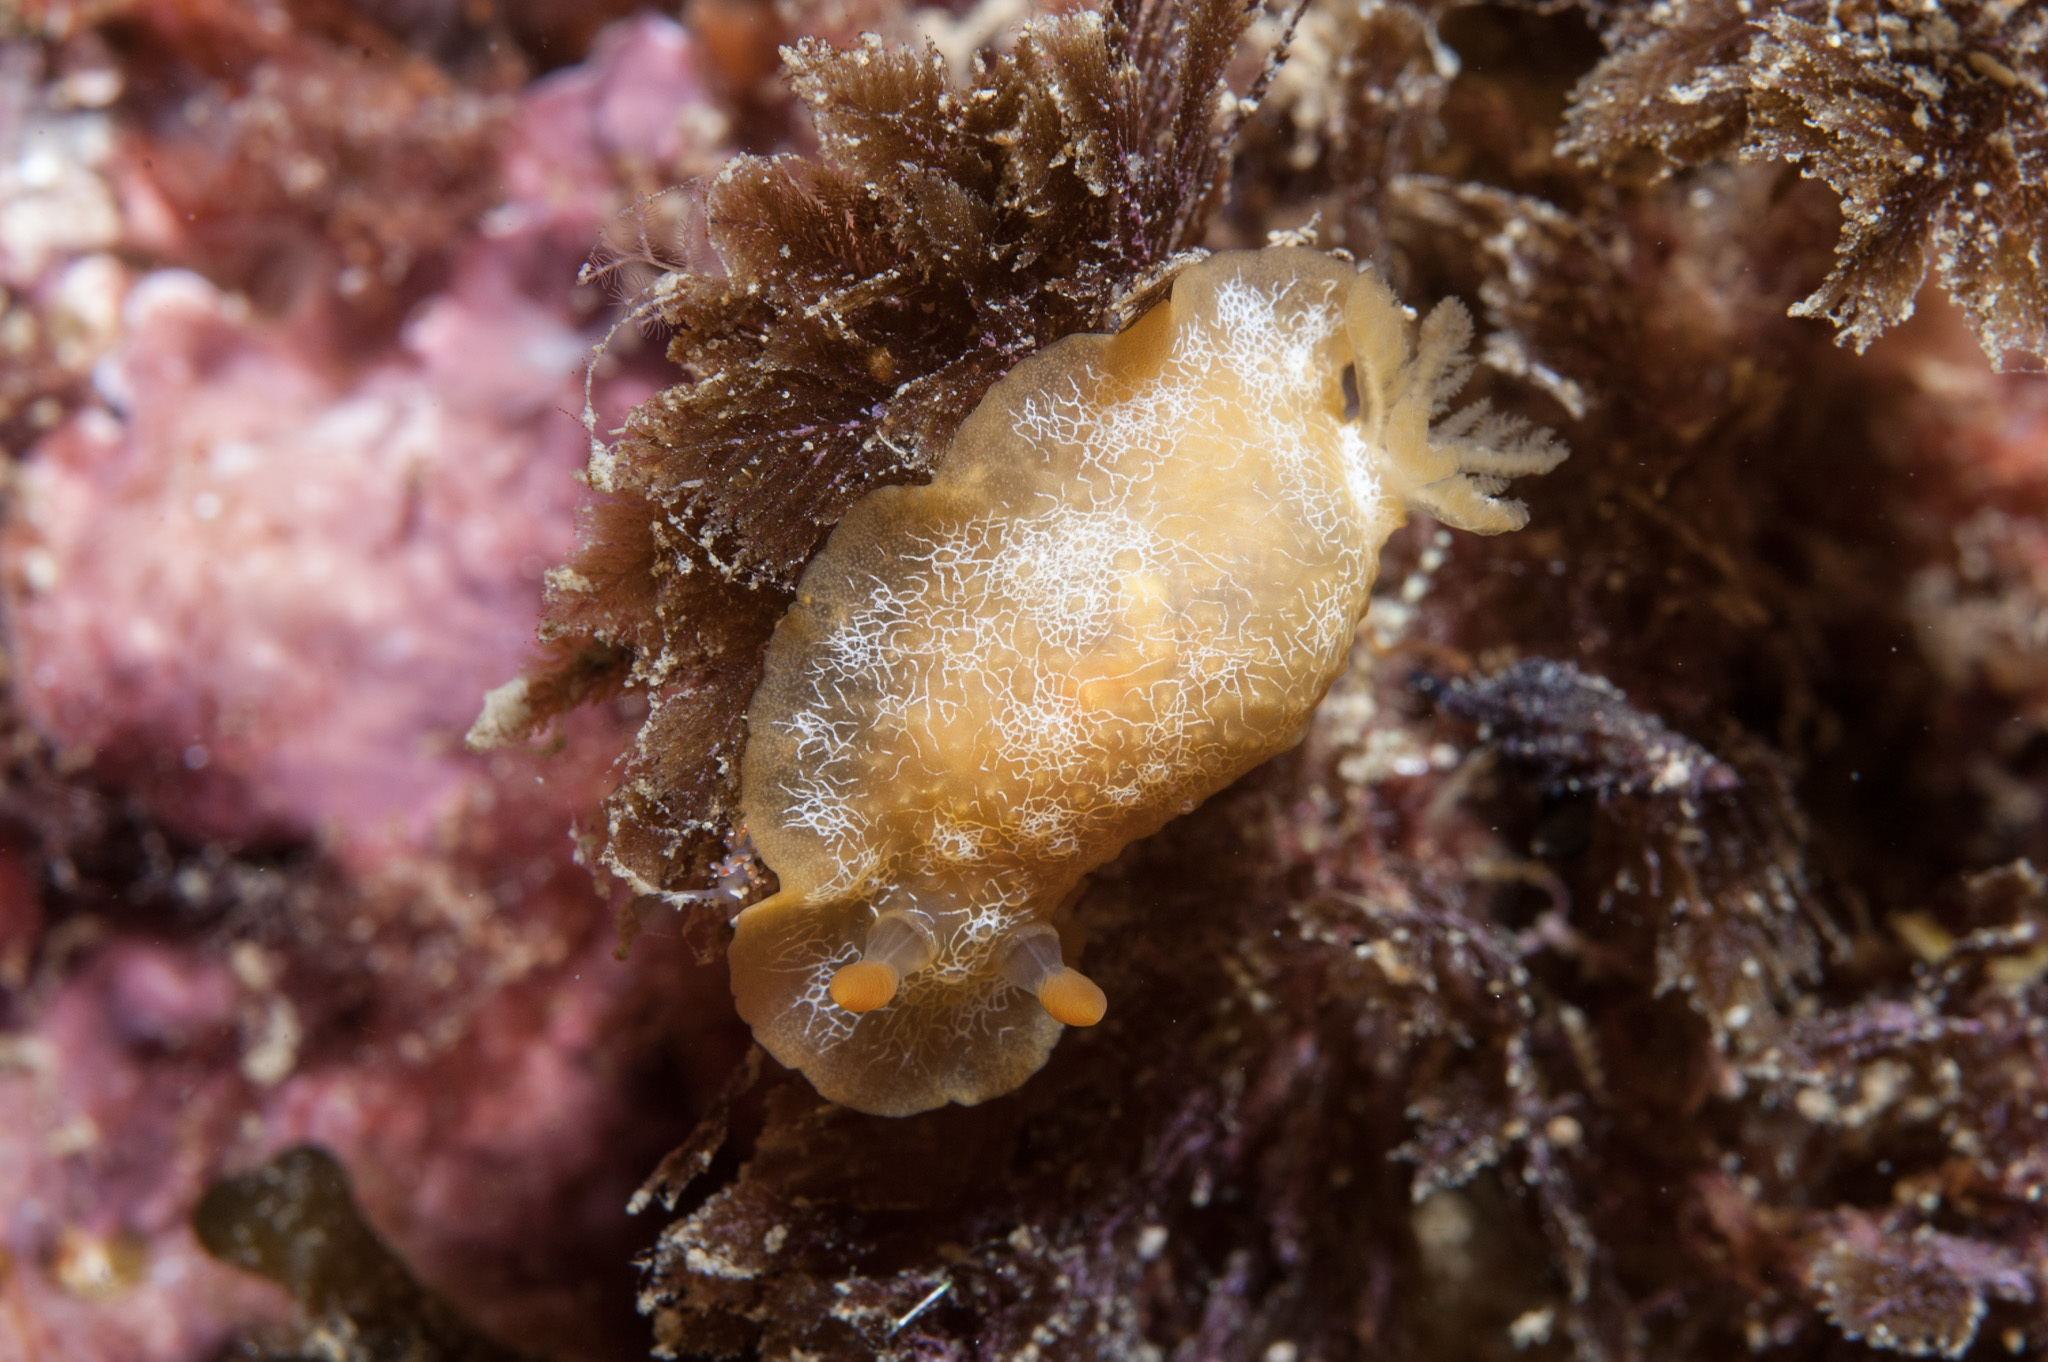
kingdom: Animalia
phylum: Mollusca
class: Gastropoda
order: Nudibranchia
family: Dendrodorididae
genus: Doriopsilla
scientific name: Doriopsilla areolata
